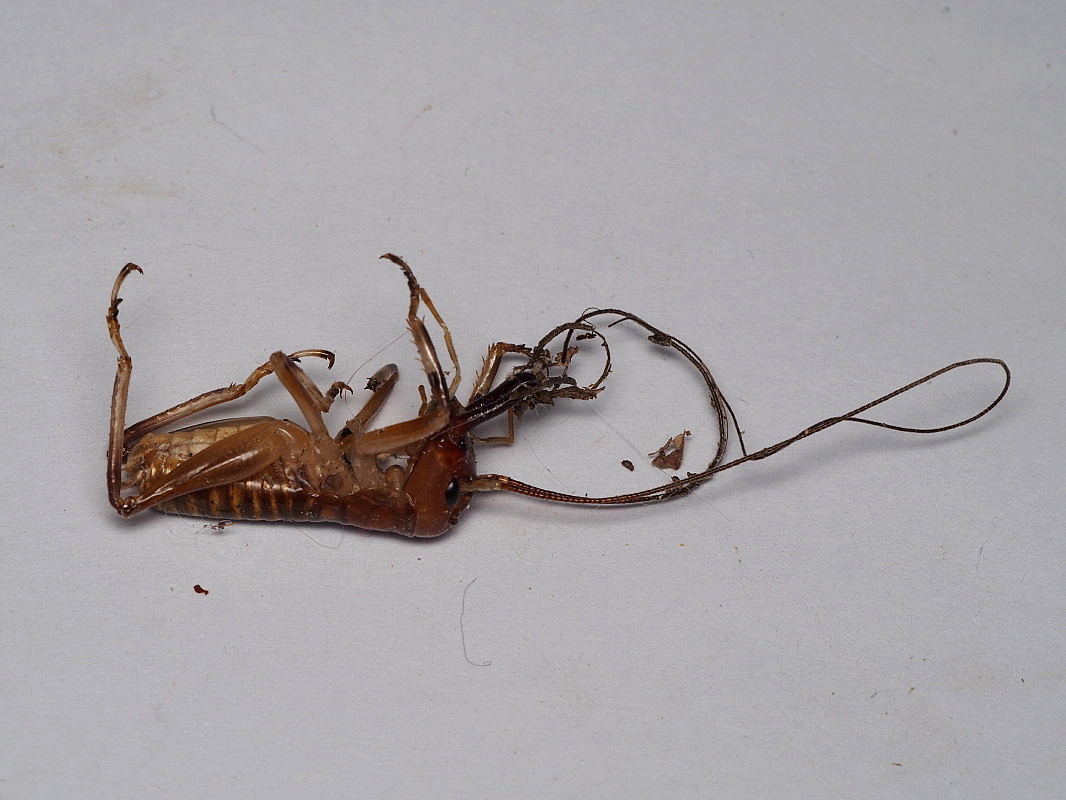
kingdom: Animalia
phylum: Arthropoda
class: Insecta
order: Orthoptera
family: Anostostomatidae
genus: Anisoura
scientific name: Anisoura nicobarica
